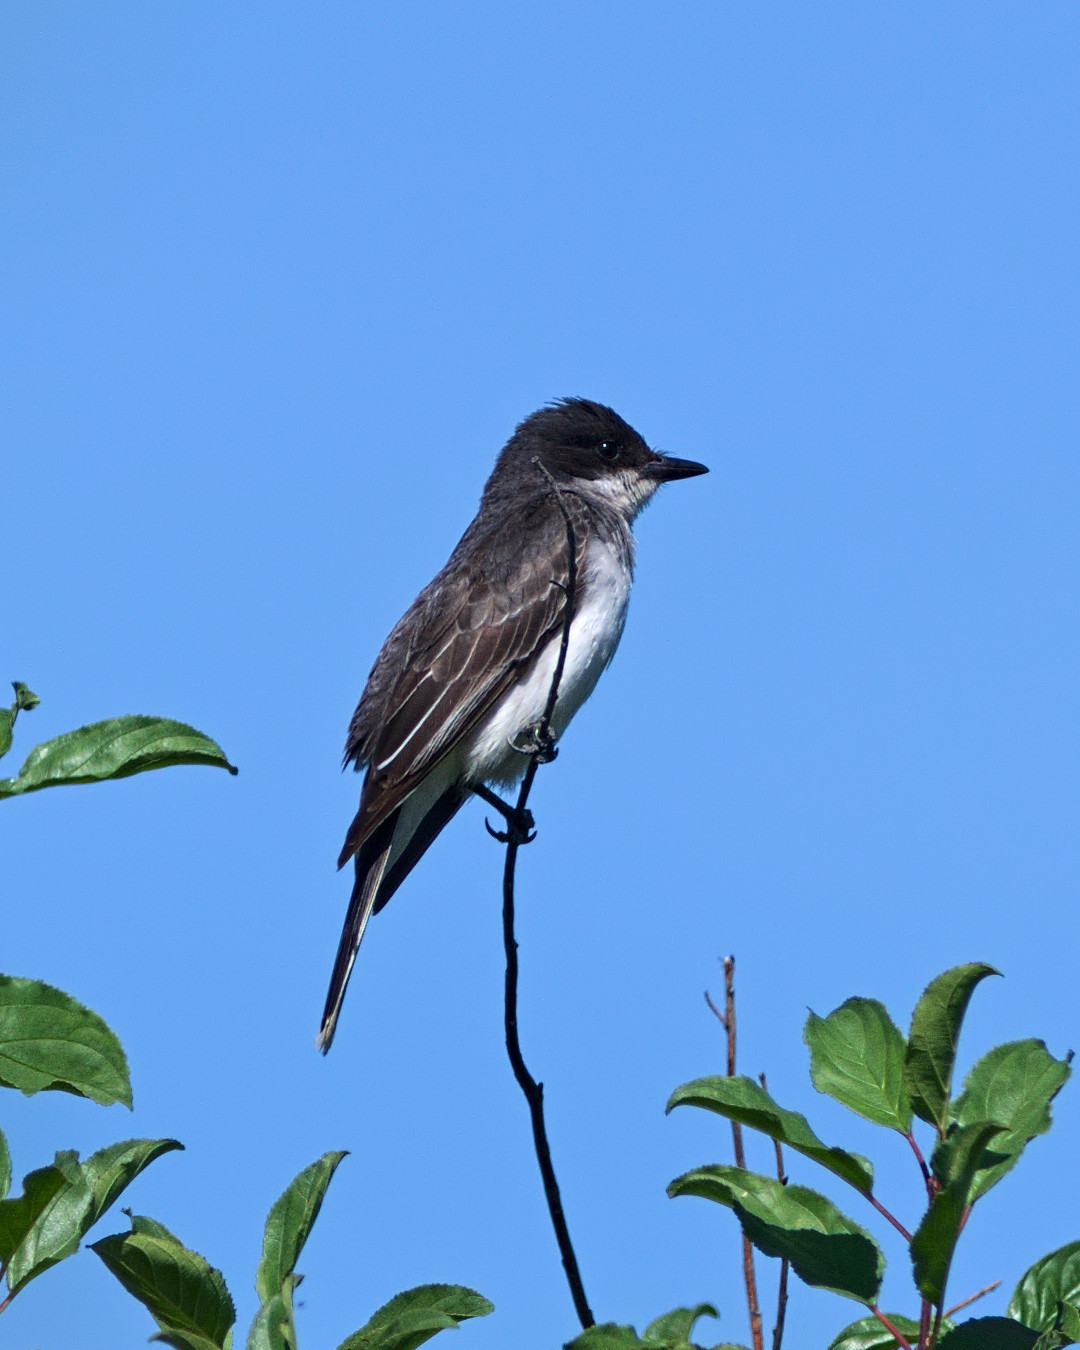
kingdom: Animalia
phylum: Chordata
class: Aves
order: Passeriformes
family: Tyrannidae
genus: Tyrannus
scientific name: Tyrannus tyrannus
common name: Eastern kingbird
